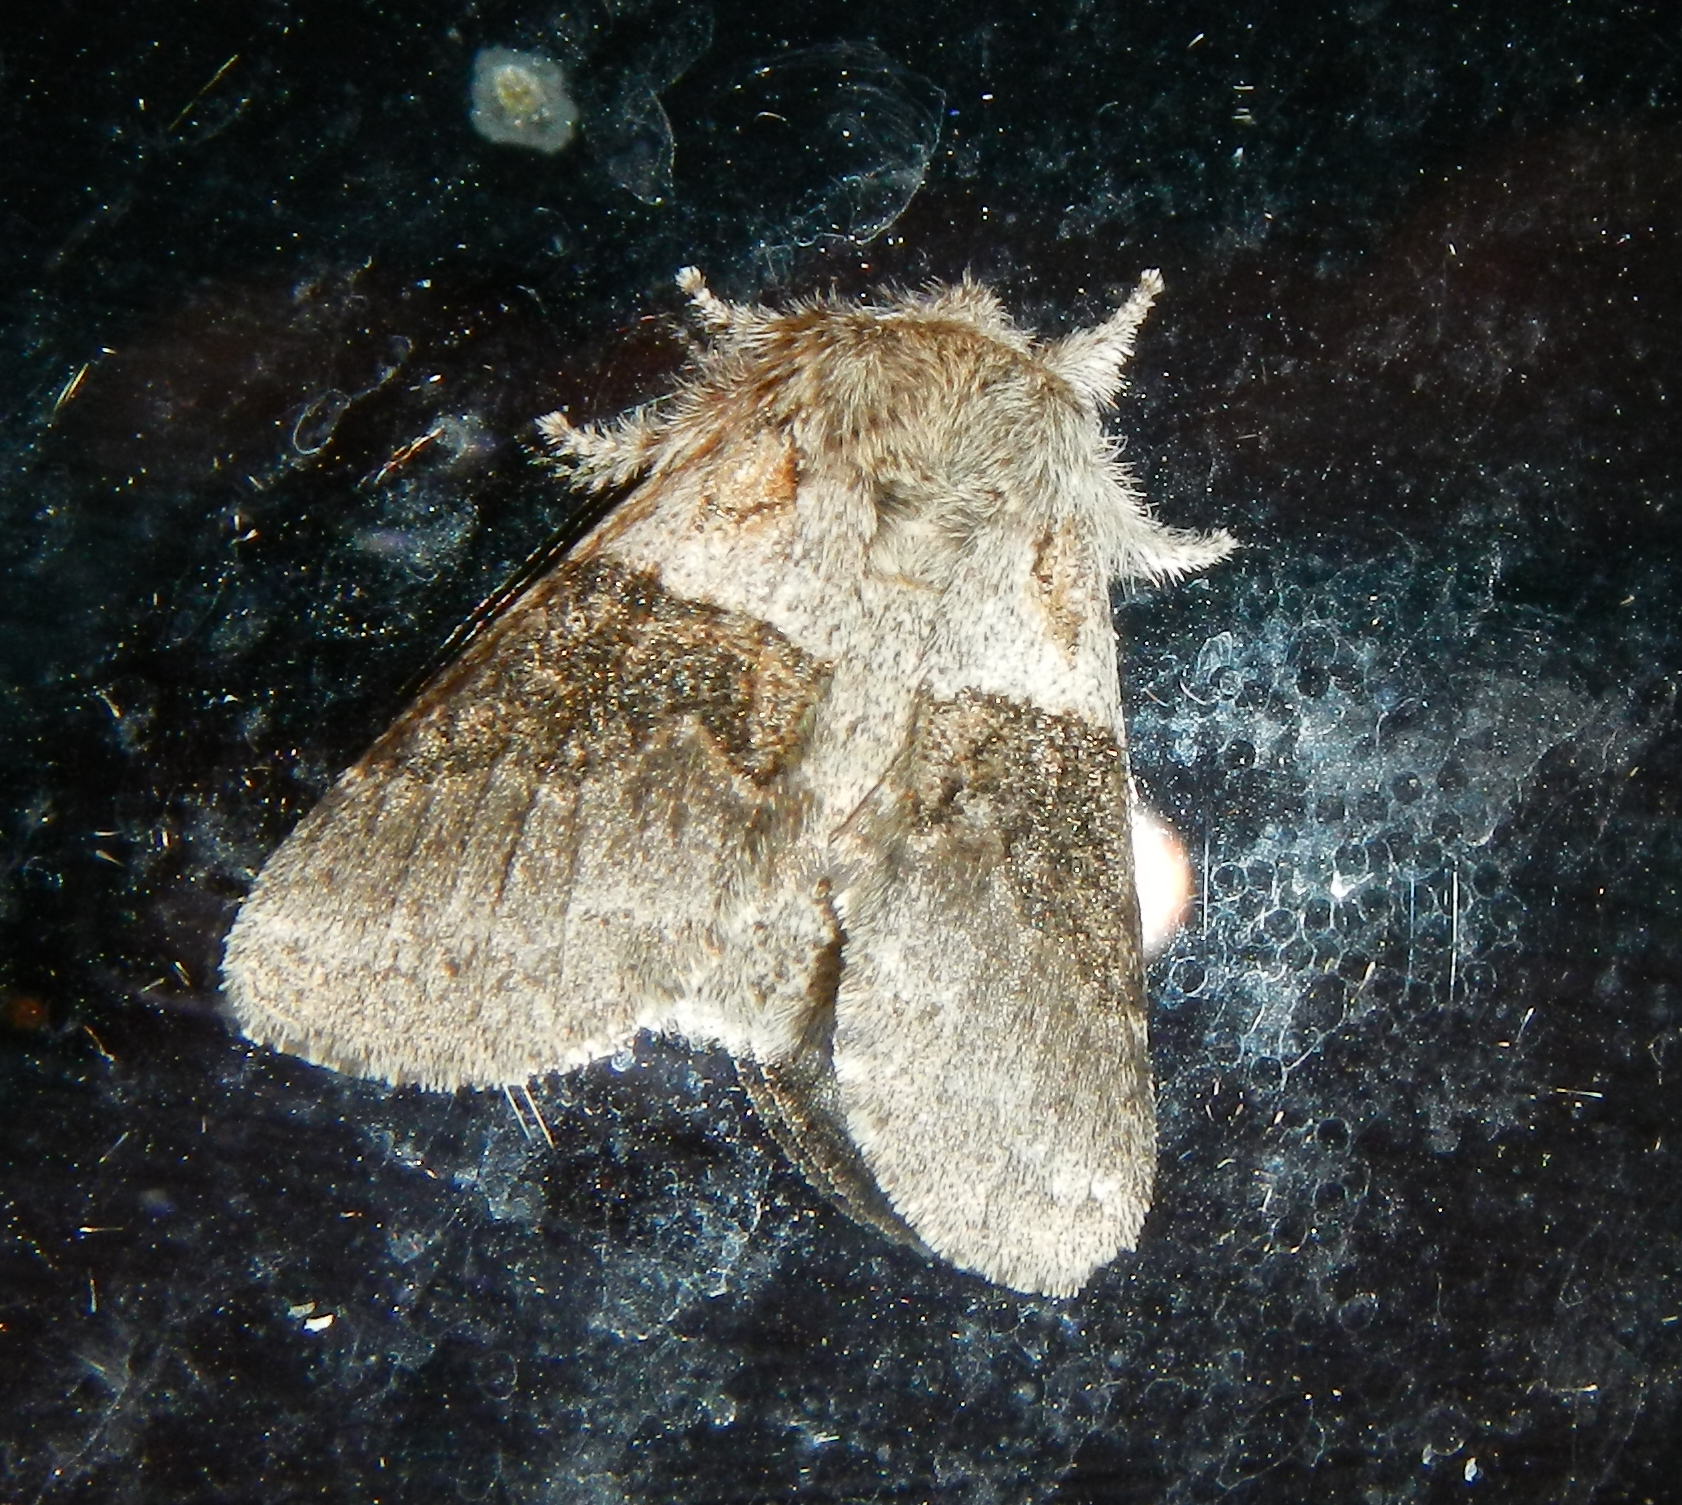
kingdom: Animalia
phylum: Arthropoda
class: Insecta
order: Lepidoptera
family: Notodontidae
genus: Gluphisia
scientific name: Gluphisia septentrionis
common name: Common gluphisia
